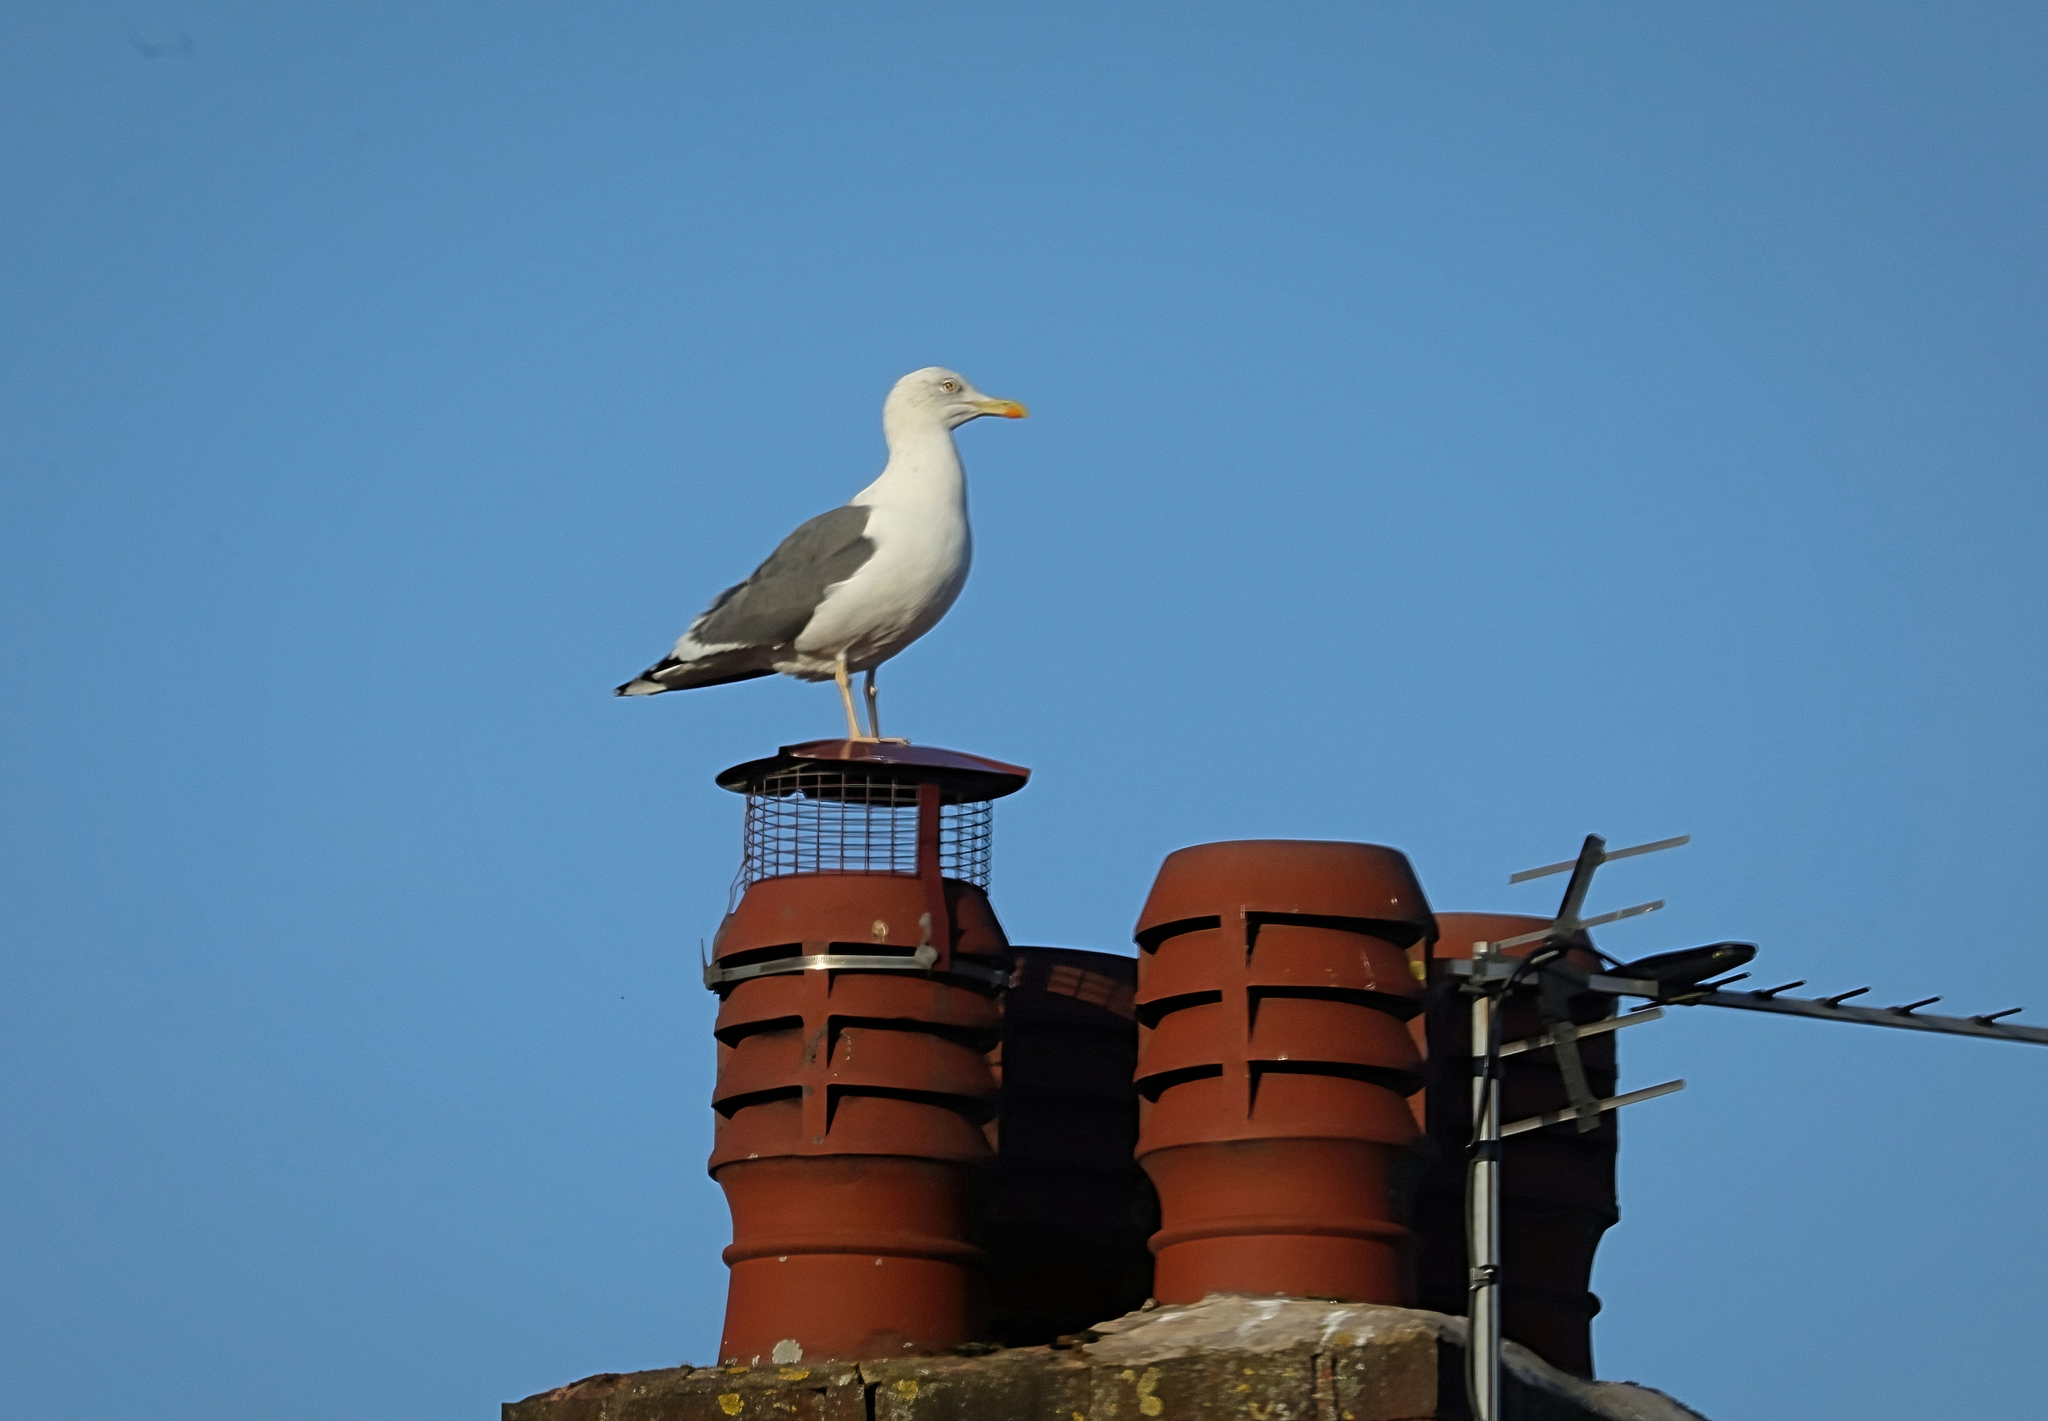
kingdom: Animalia
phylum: Chordata
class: Aves
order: Charadriiformes
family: Laridae
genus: Larus
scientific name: Larus argentatus
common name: Herring gull
